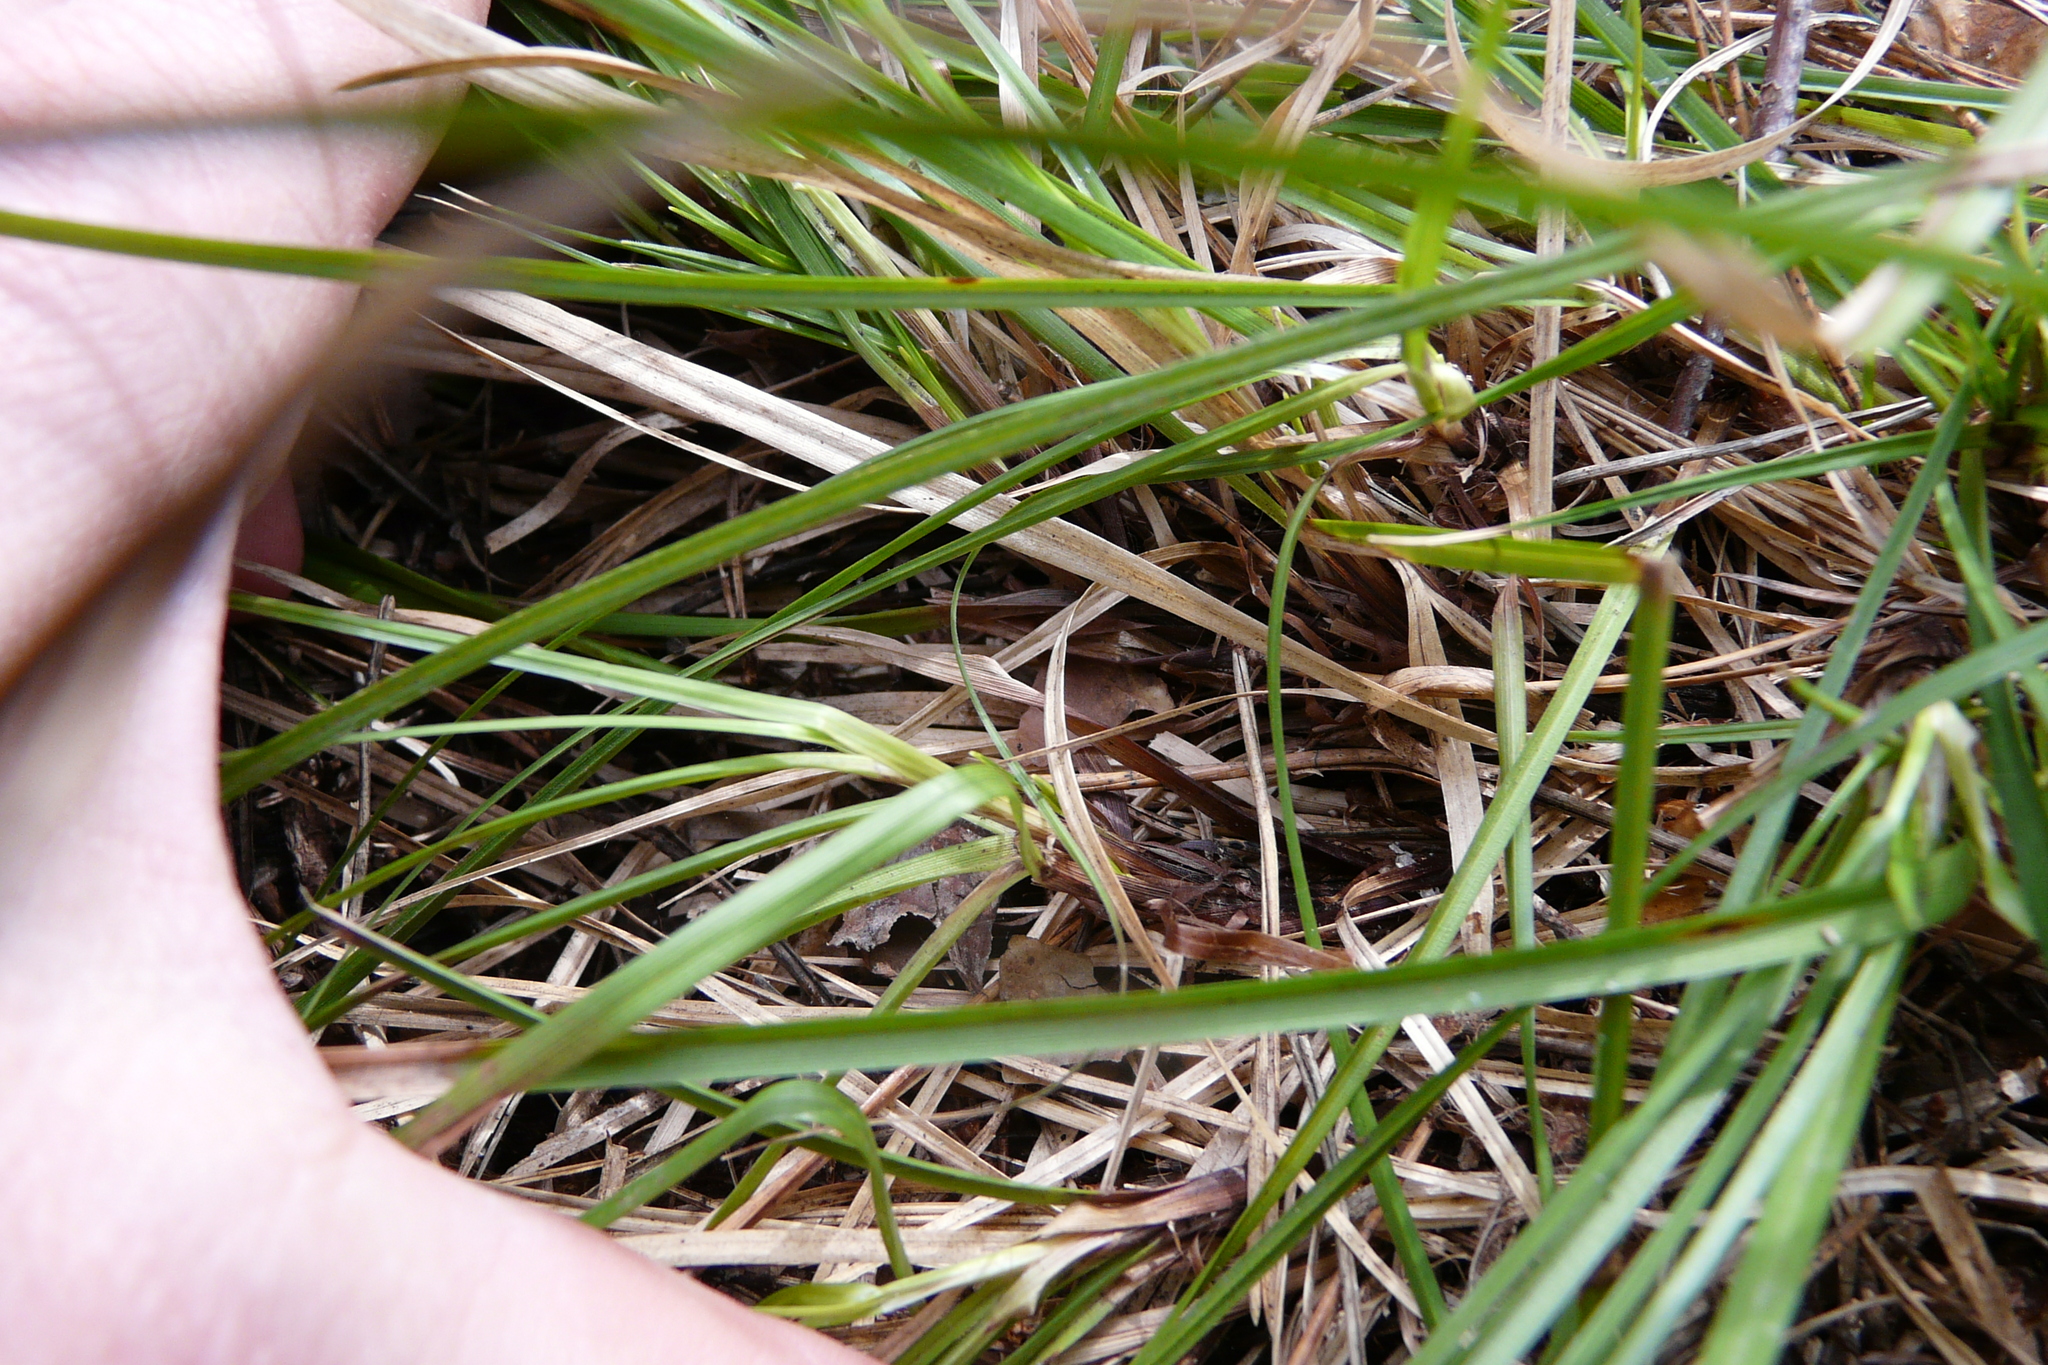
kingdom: Plantae
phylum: Tracheophyta
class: Liliopsida
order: Poales
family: Cyperaceae
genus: Carex
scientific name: Carex rhizina
